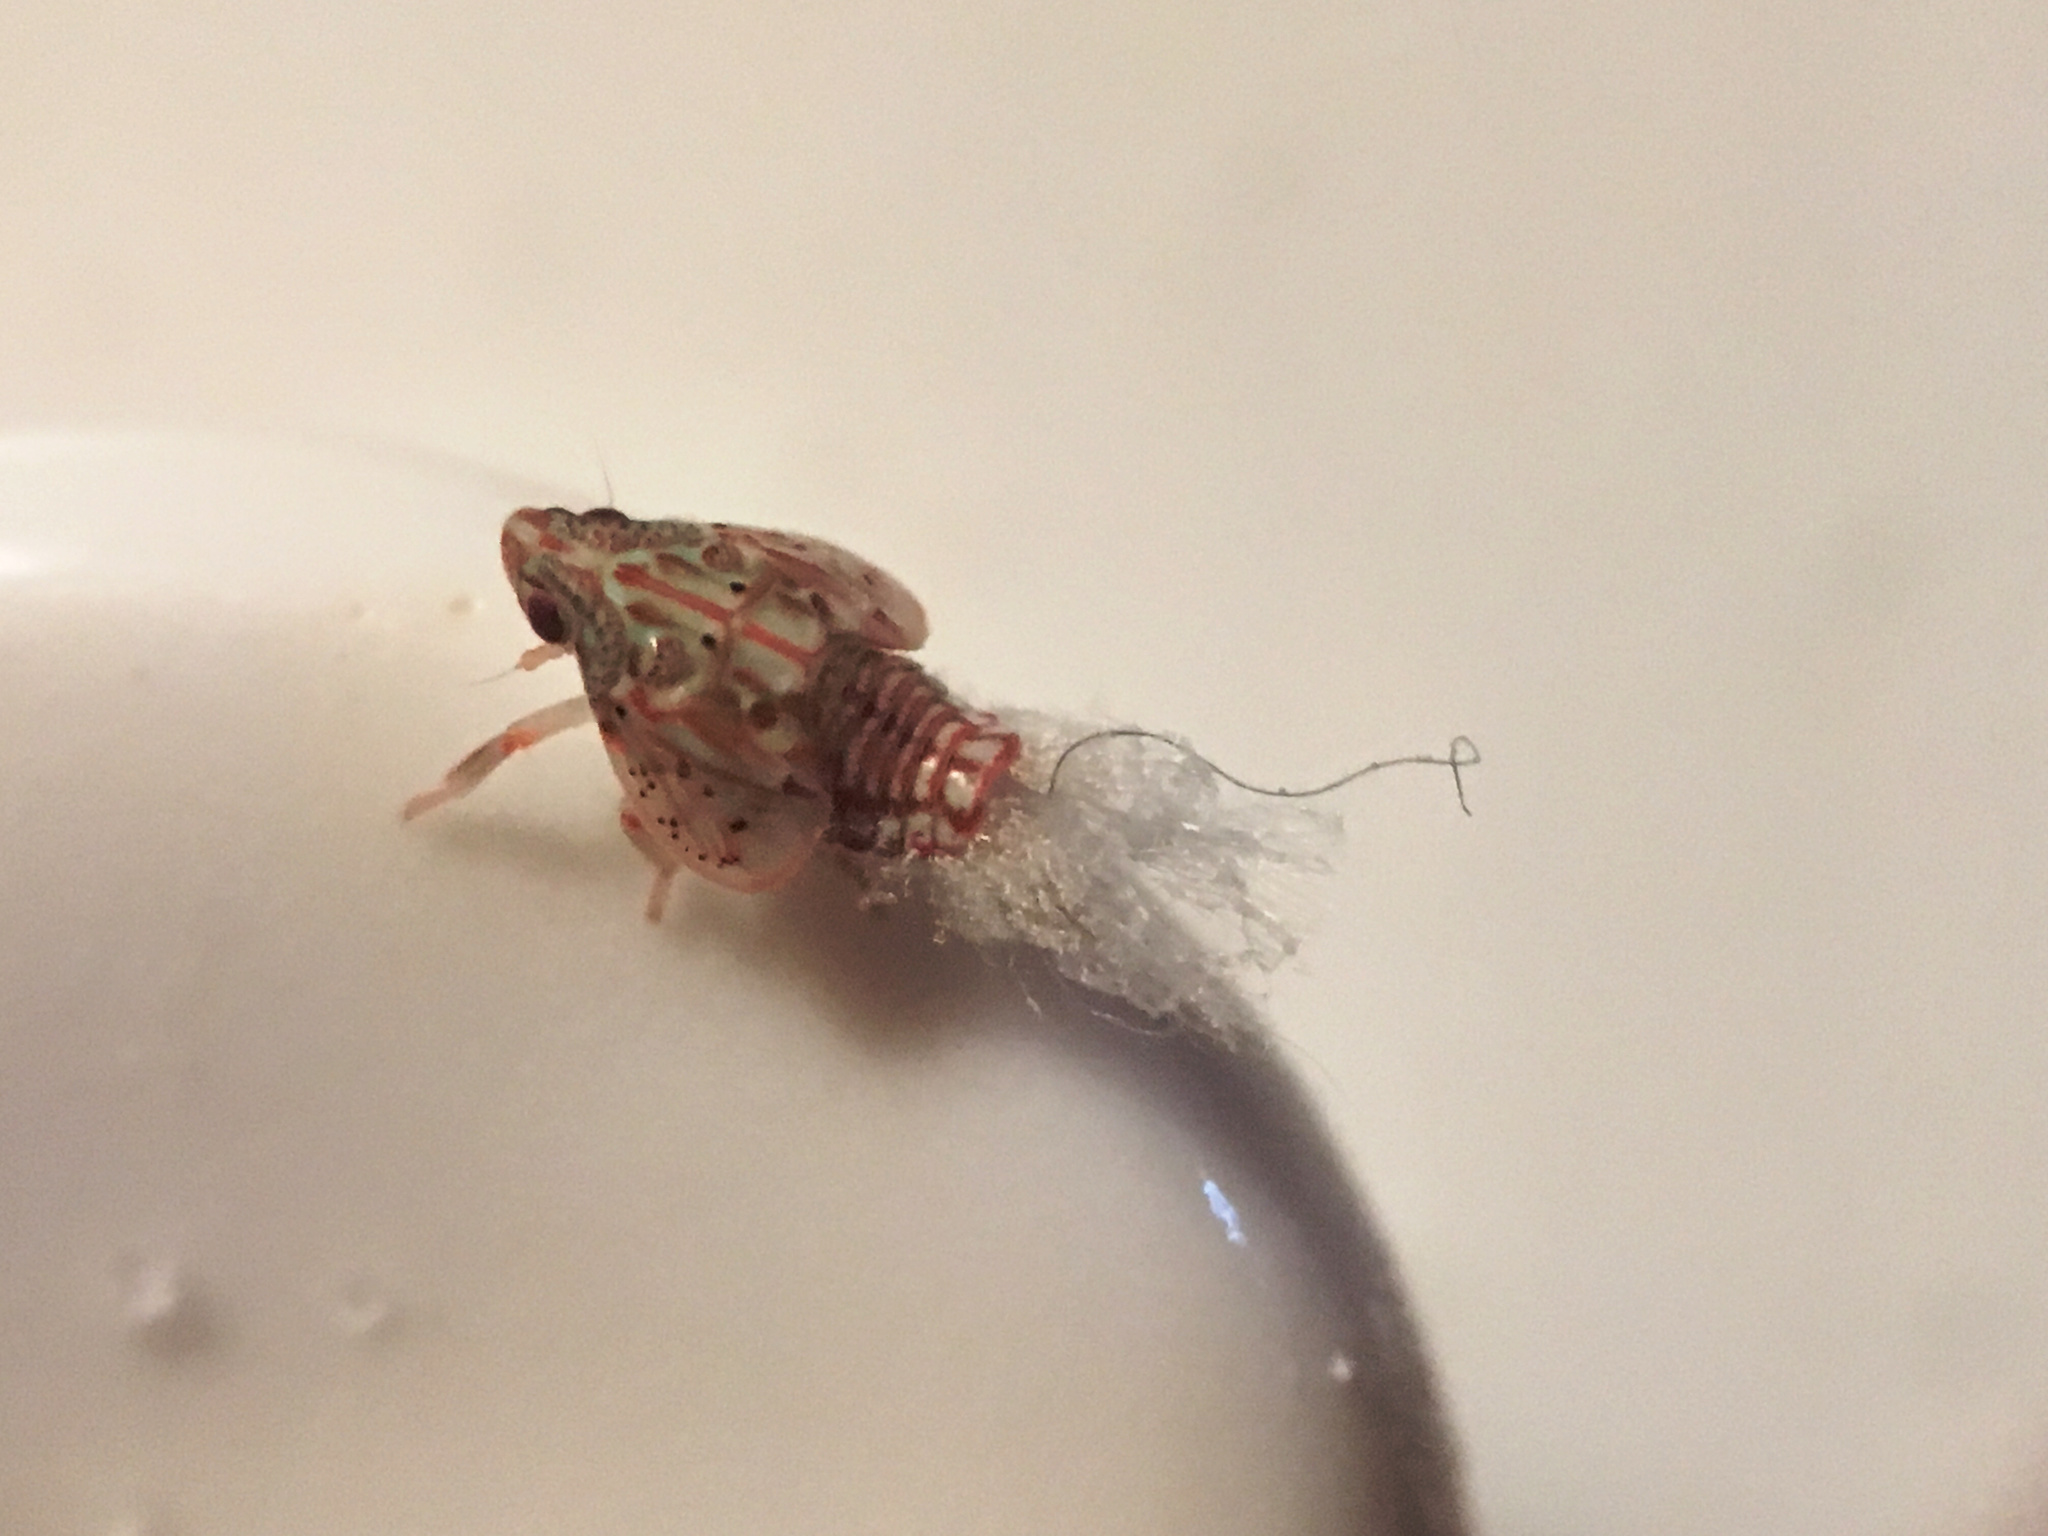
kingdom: Animalia
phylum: Arthropoda
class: Insecta
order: Hemiptera
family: Flatidae
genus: Siphanta
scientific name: Siphanta acuta
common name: Torpedo bug
